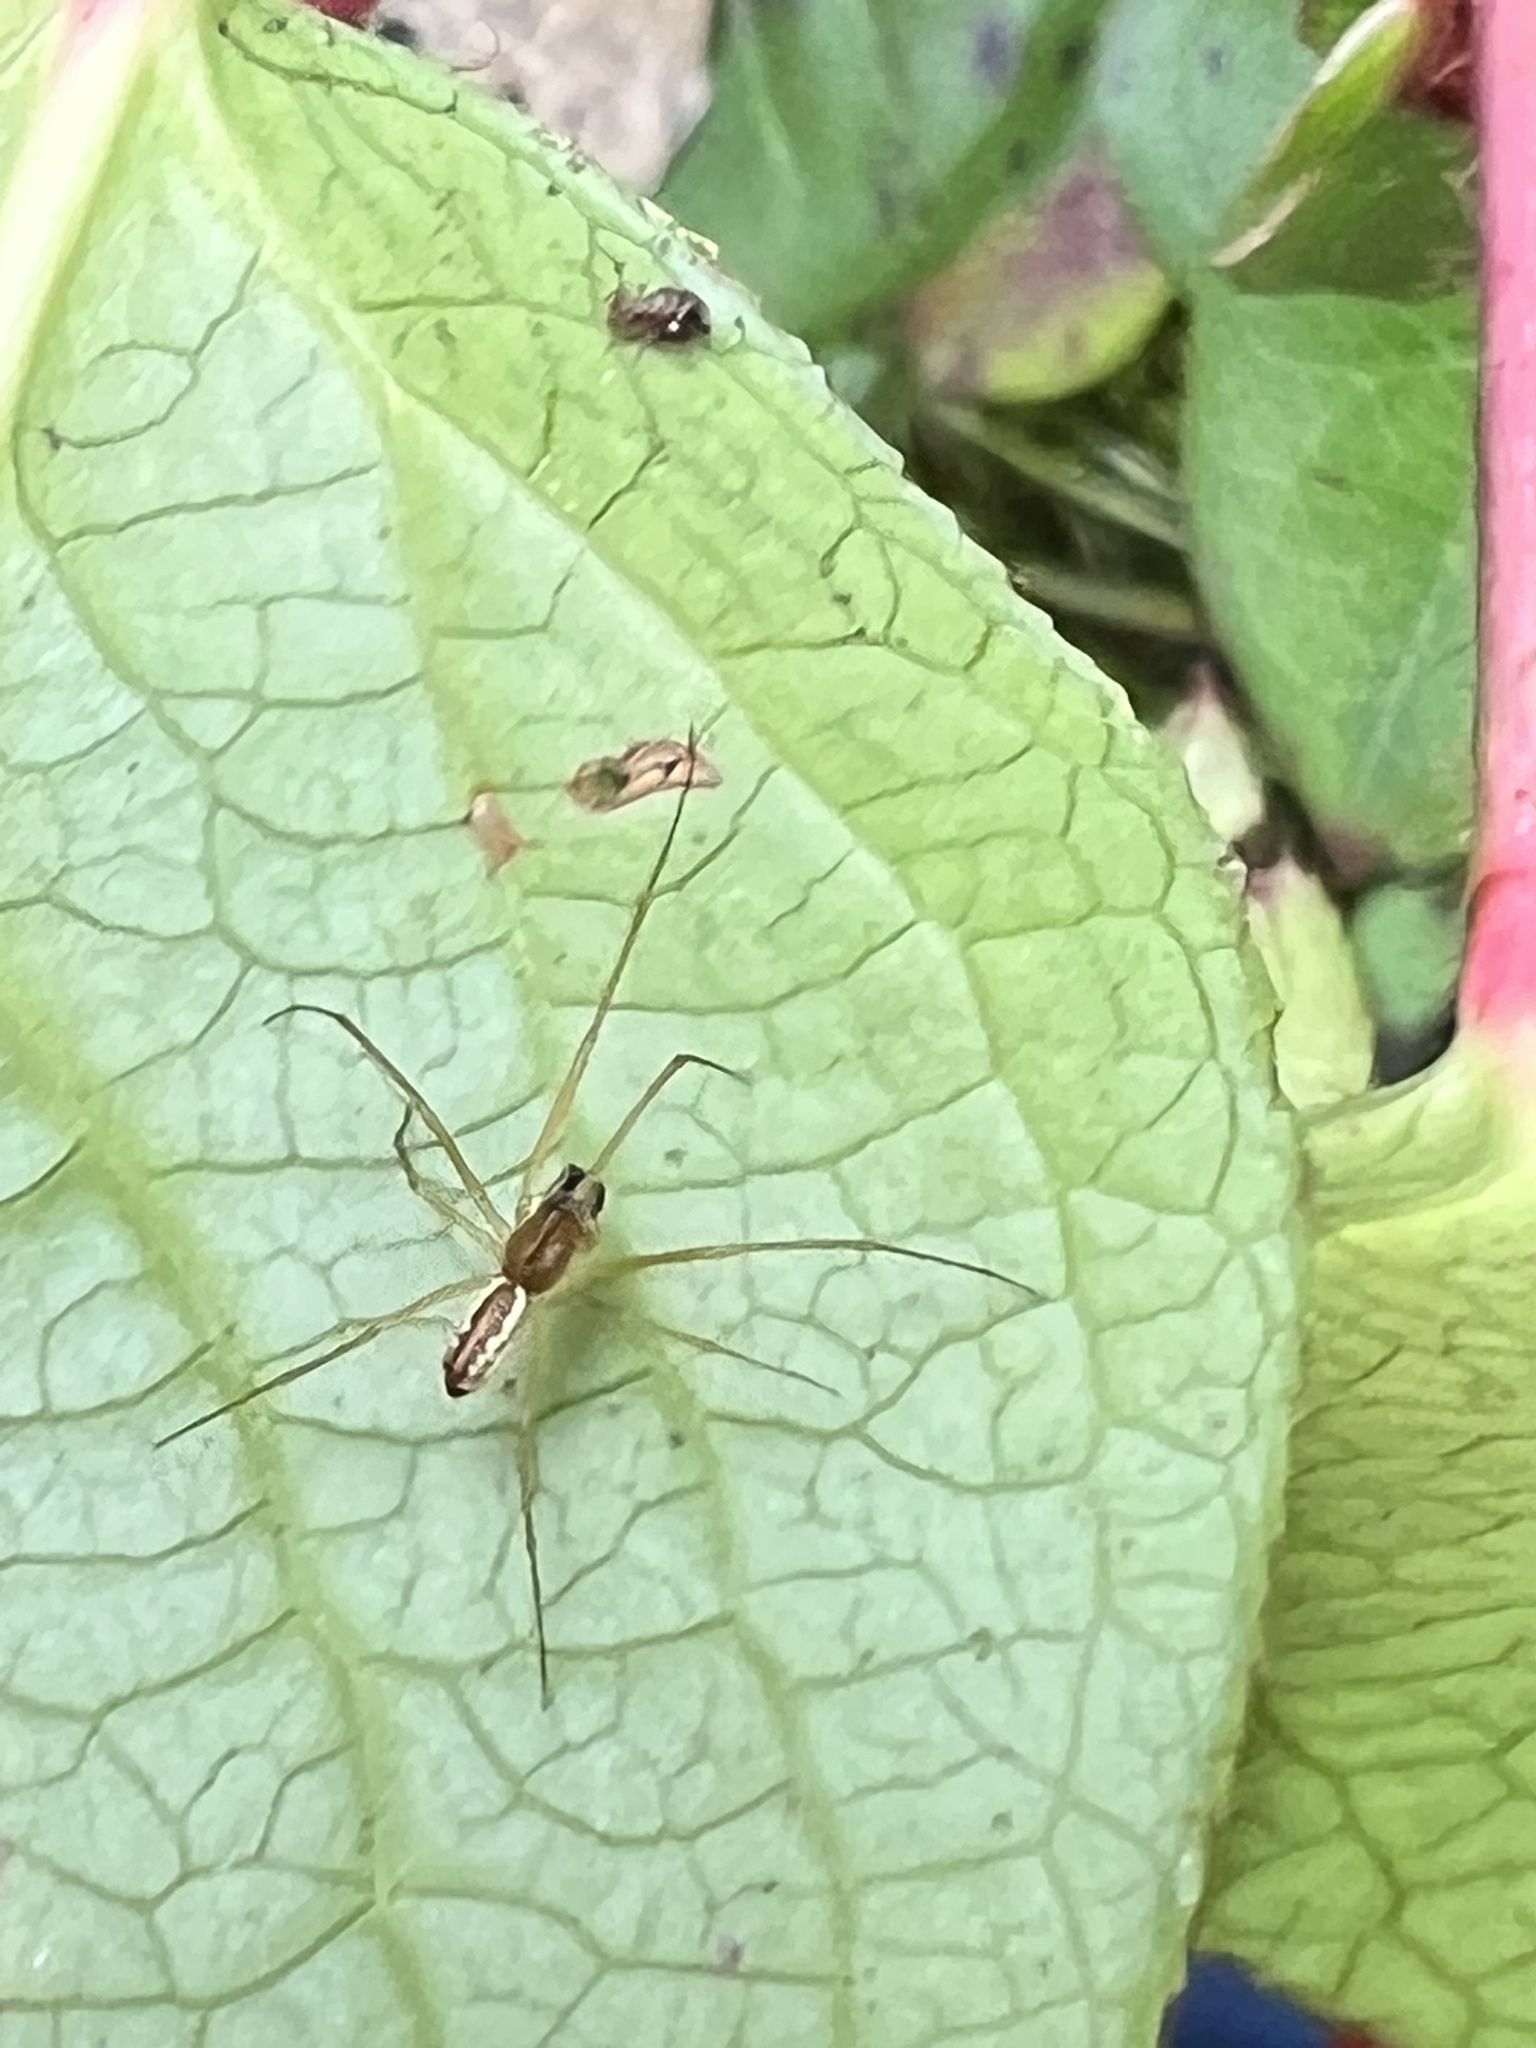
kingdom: Animalia
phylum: Arthropoda
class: Arachnida
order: Araneae
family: Linyphiidae
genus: Microlinyphia
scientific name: Microlinyphia dana
